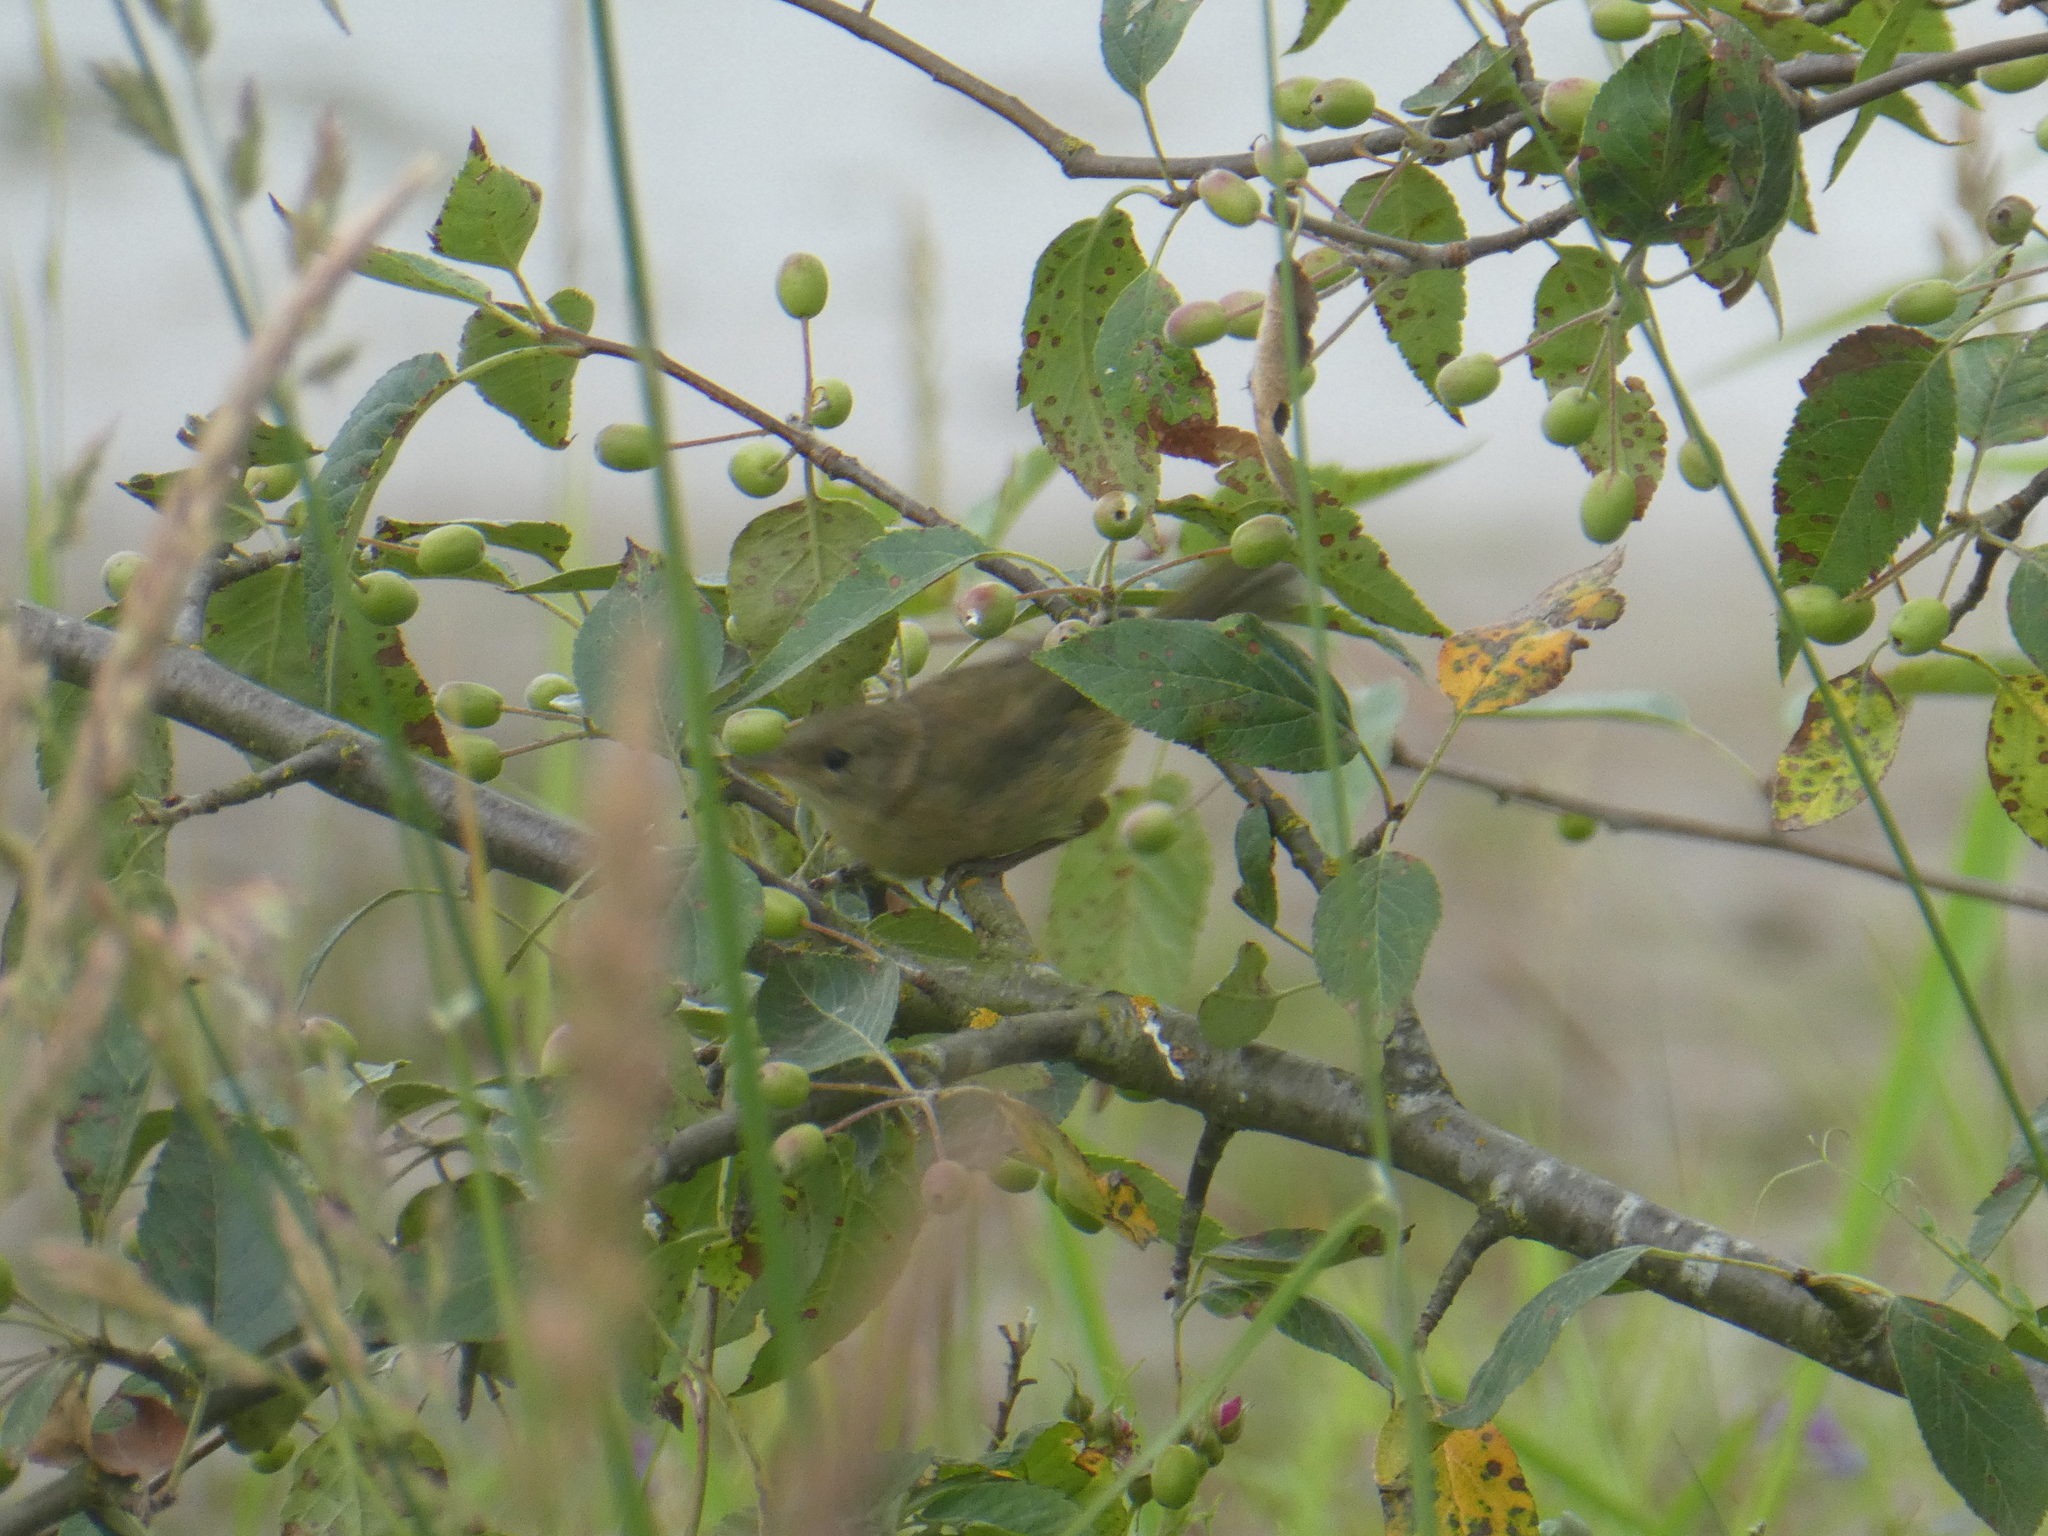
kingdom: Animalia
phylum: Chordata
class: Aves
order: Passeriformes
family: Parulidae
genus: Leiothlypis
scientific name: Leiothlypis celata
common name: Orange-crowned warbler
